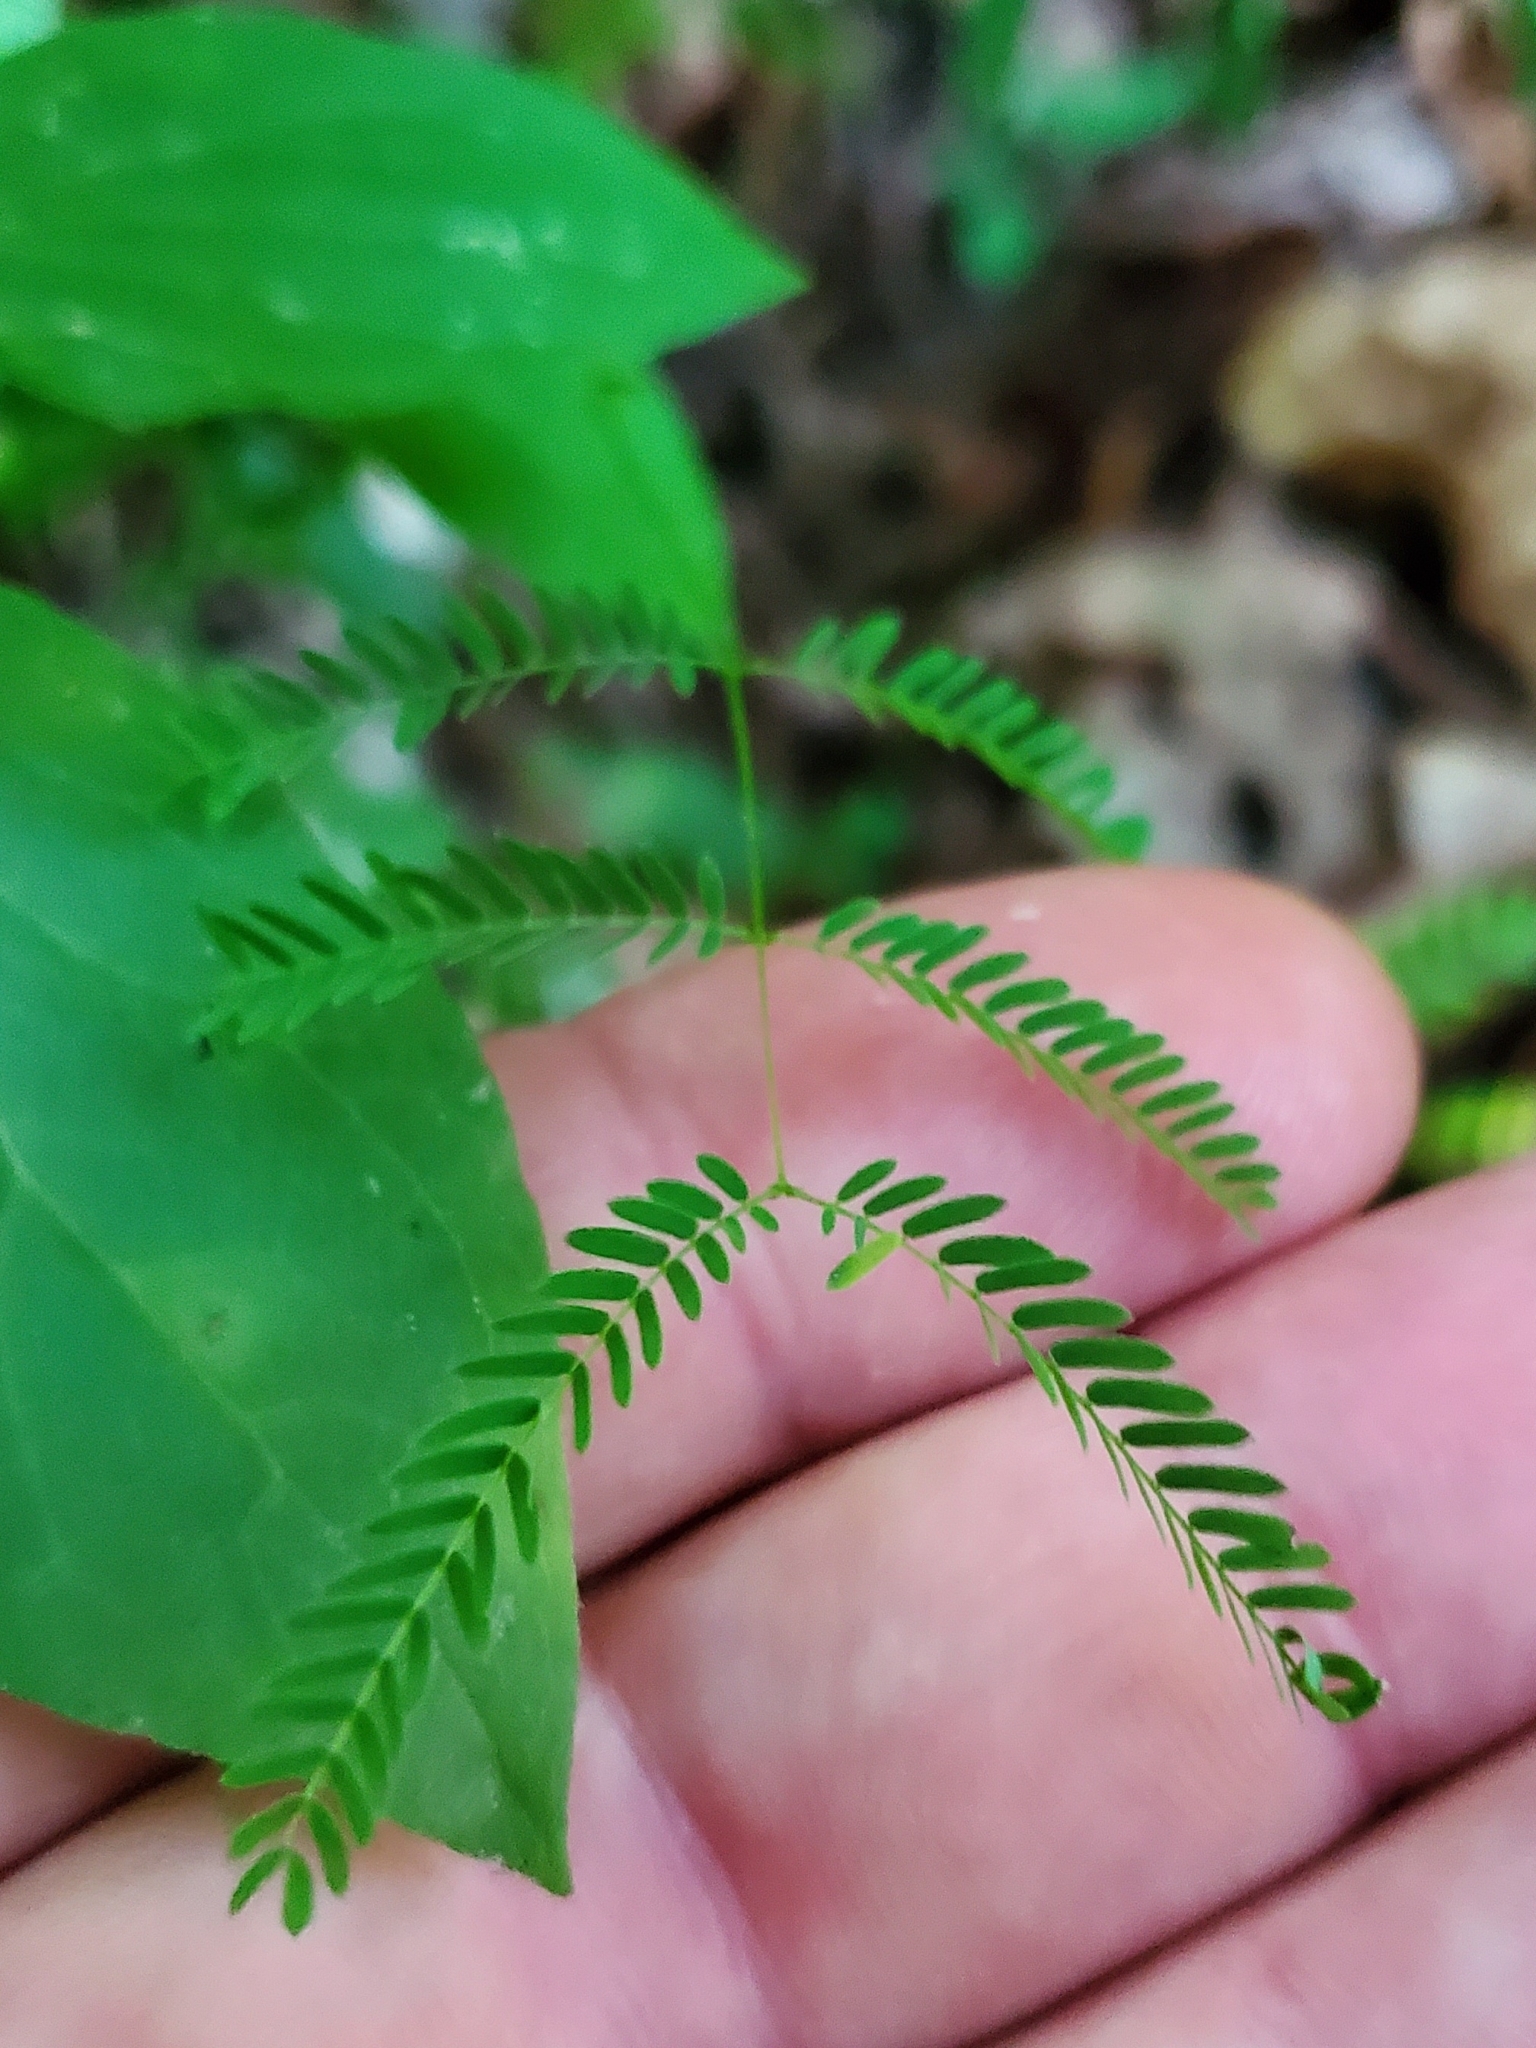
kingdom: Plantae
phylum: Tracheophyta
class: Magnoliopsida
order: Fabales
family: Fabaceae
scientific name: Fabaceae
